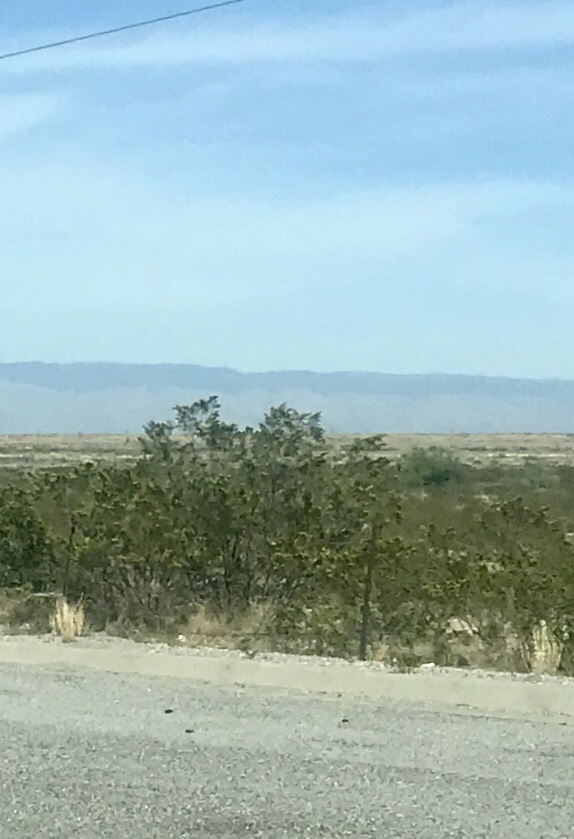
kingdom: Plantae
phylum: Tracheophyta
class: Magnoliopsida
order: Zygophyllales
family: Zygophyllaceae
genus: Larrea
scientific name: Larrea tridentata
